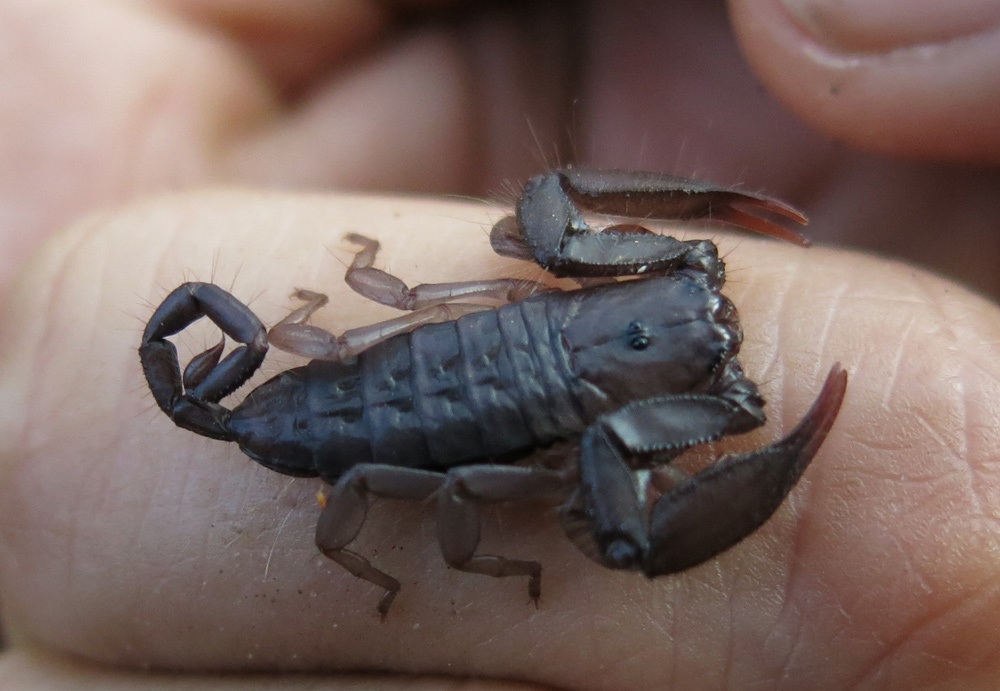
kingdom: Animalia
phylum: Arthropoda
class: Arachnida
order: Scorpiones
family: Hormuridae
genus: Hadogenes
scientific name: Hadogenes troglodytes
